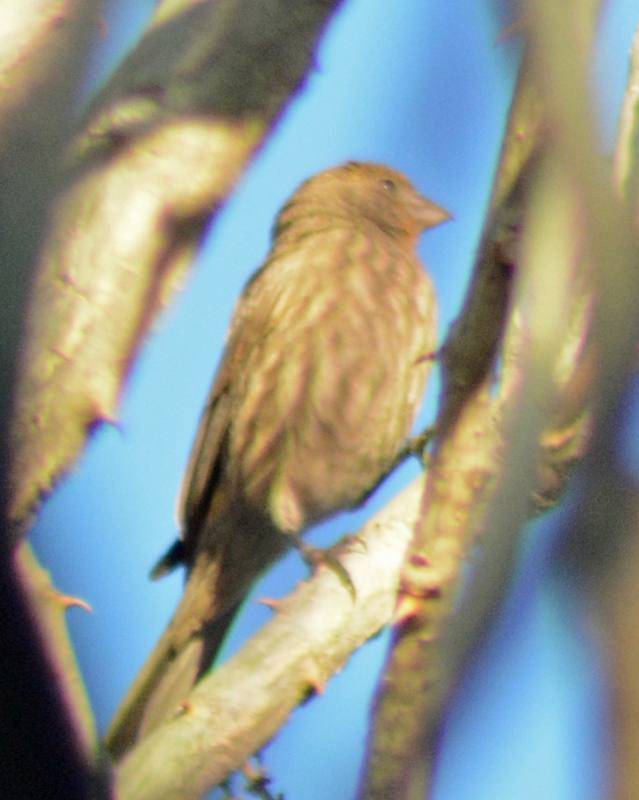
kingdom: Animalia
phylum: Chordata
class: Aves
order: Passeriformes
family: Fringillidae
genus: Haemorhous
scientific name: Haemorhous mexicanus
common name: House finch
